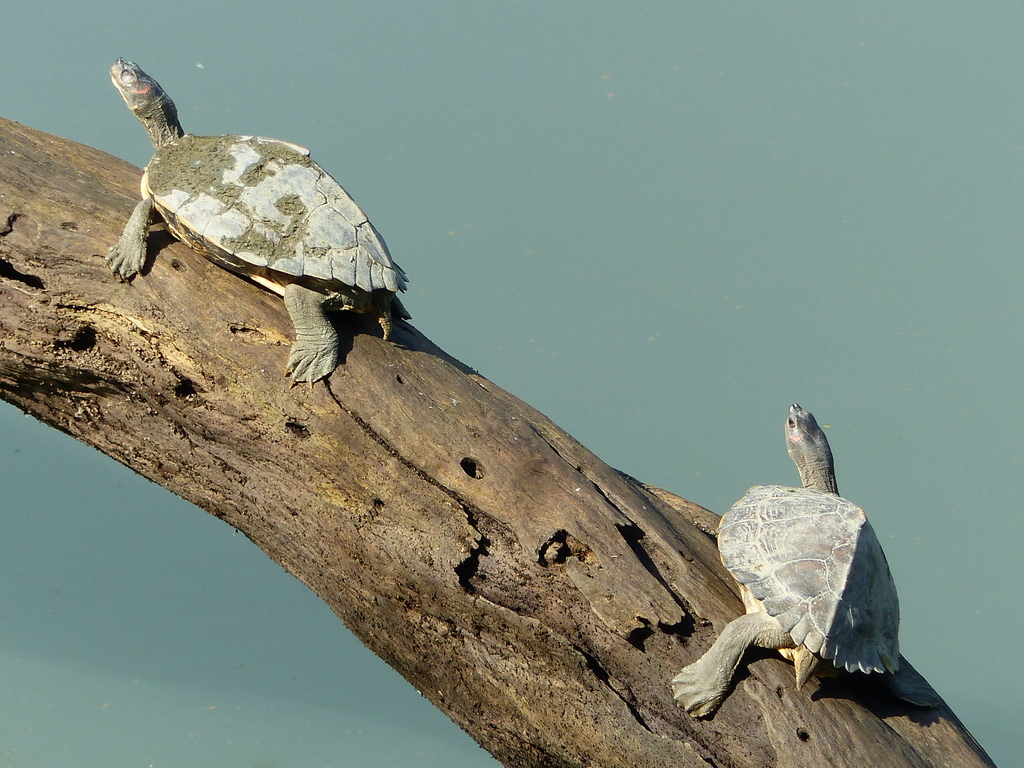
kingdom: Animalia
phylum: Chordata
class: Testudines
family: Geoemydidae
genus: Pangshura
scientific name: Pangshura sylhetensis
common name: Assam roofed turtle
